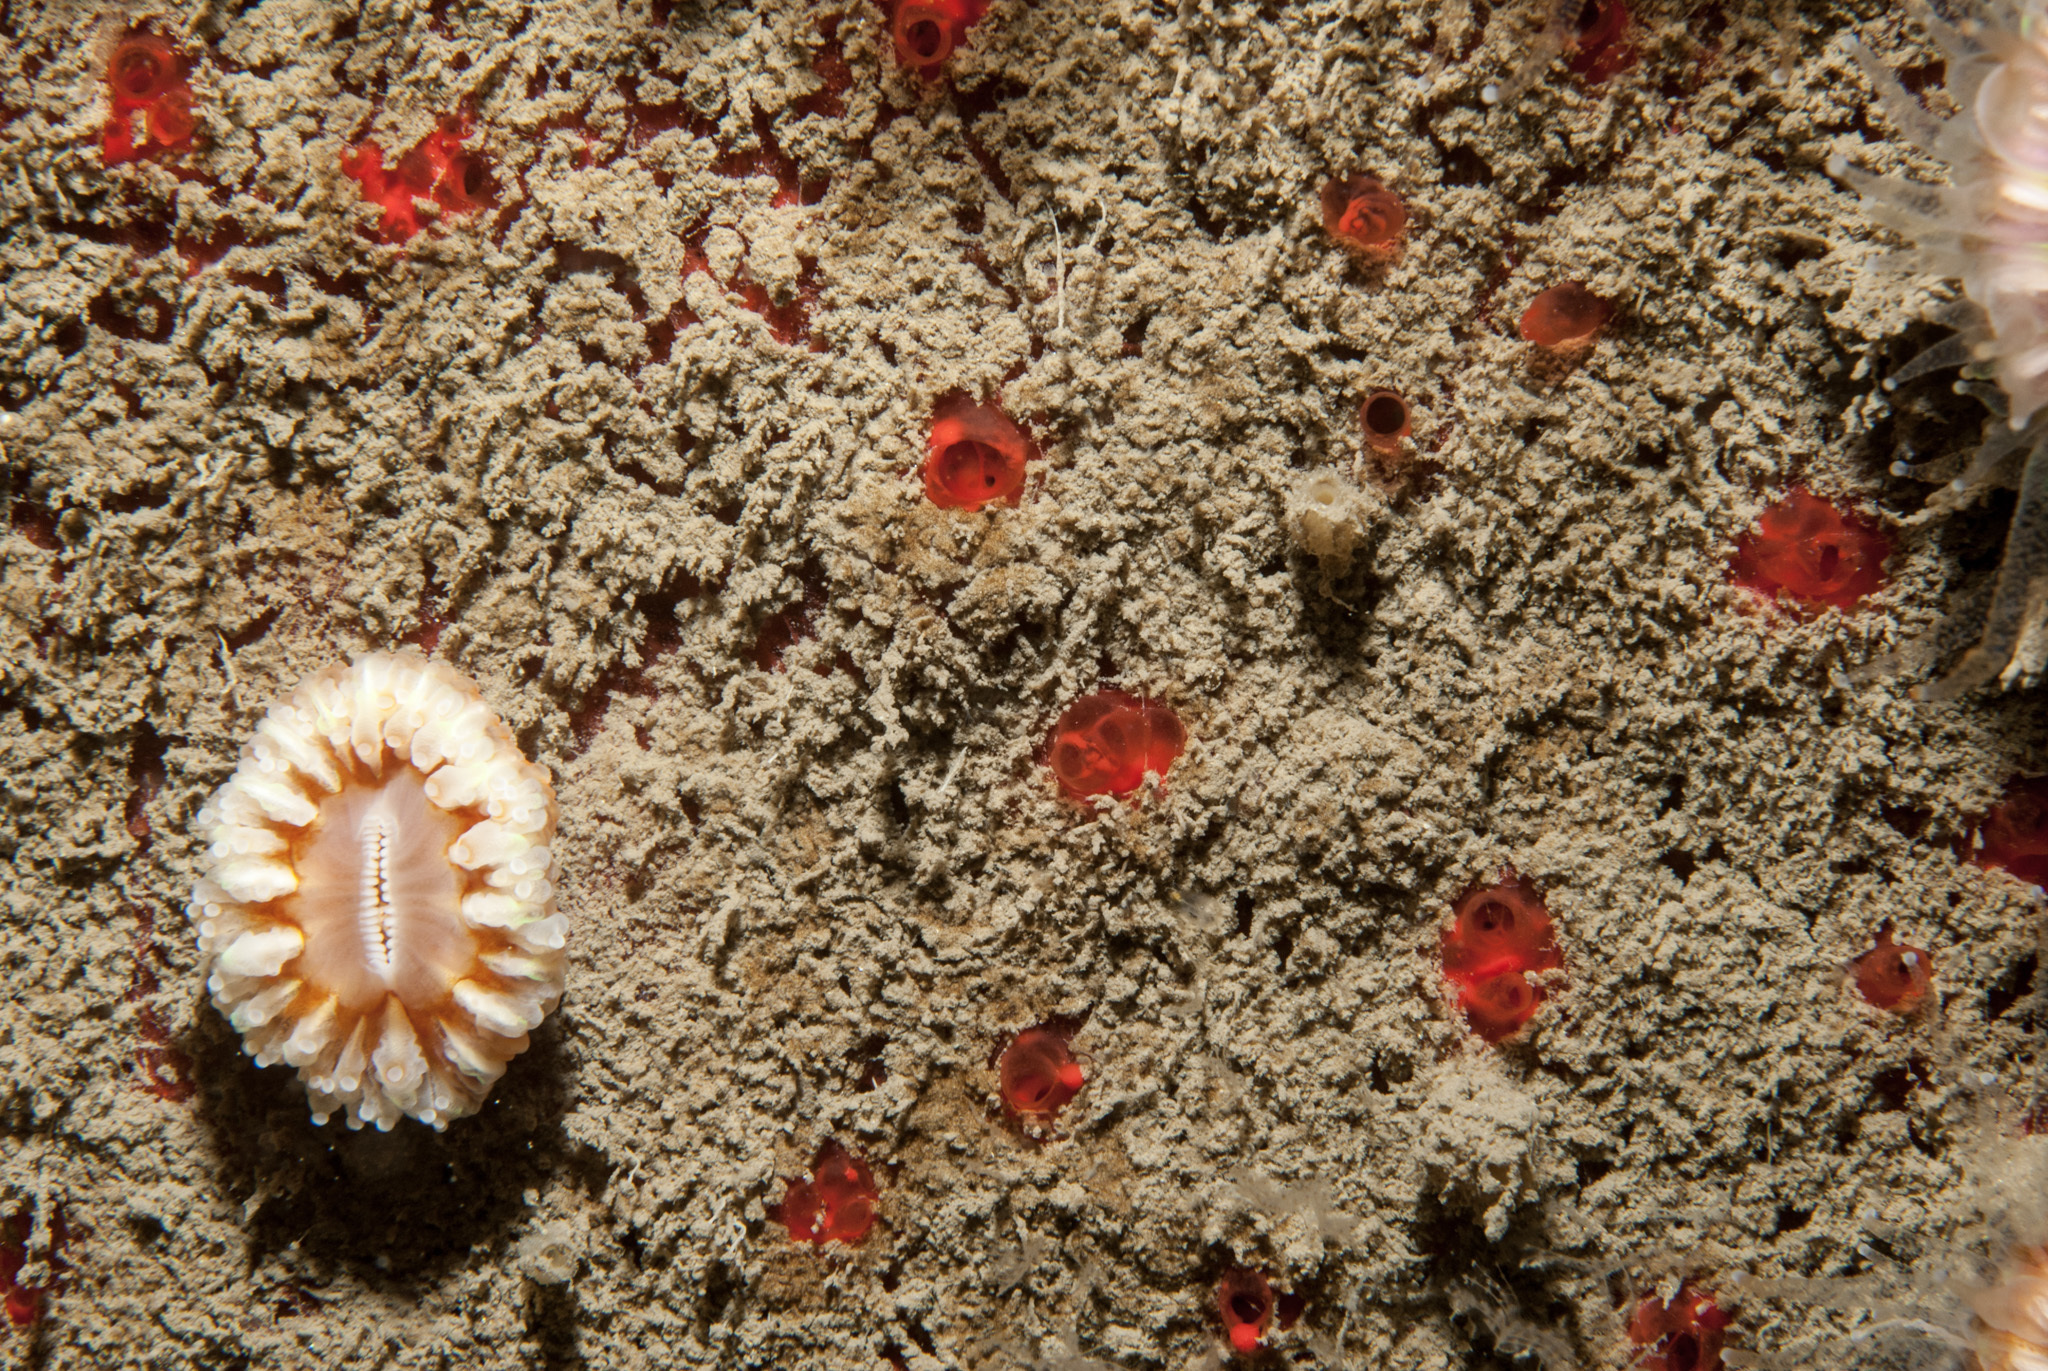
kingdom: Animalia
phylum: Porifera
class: Demospongiae
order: Axinellida
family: Raspailiidae
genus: Eurypon
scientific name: Eurypon major
